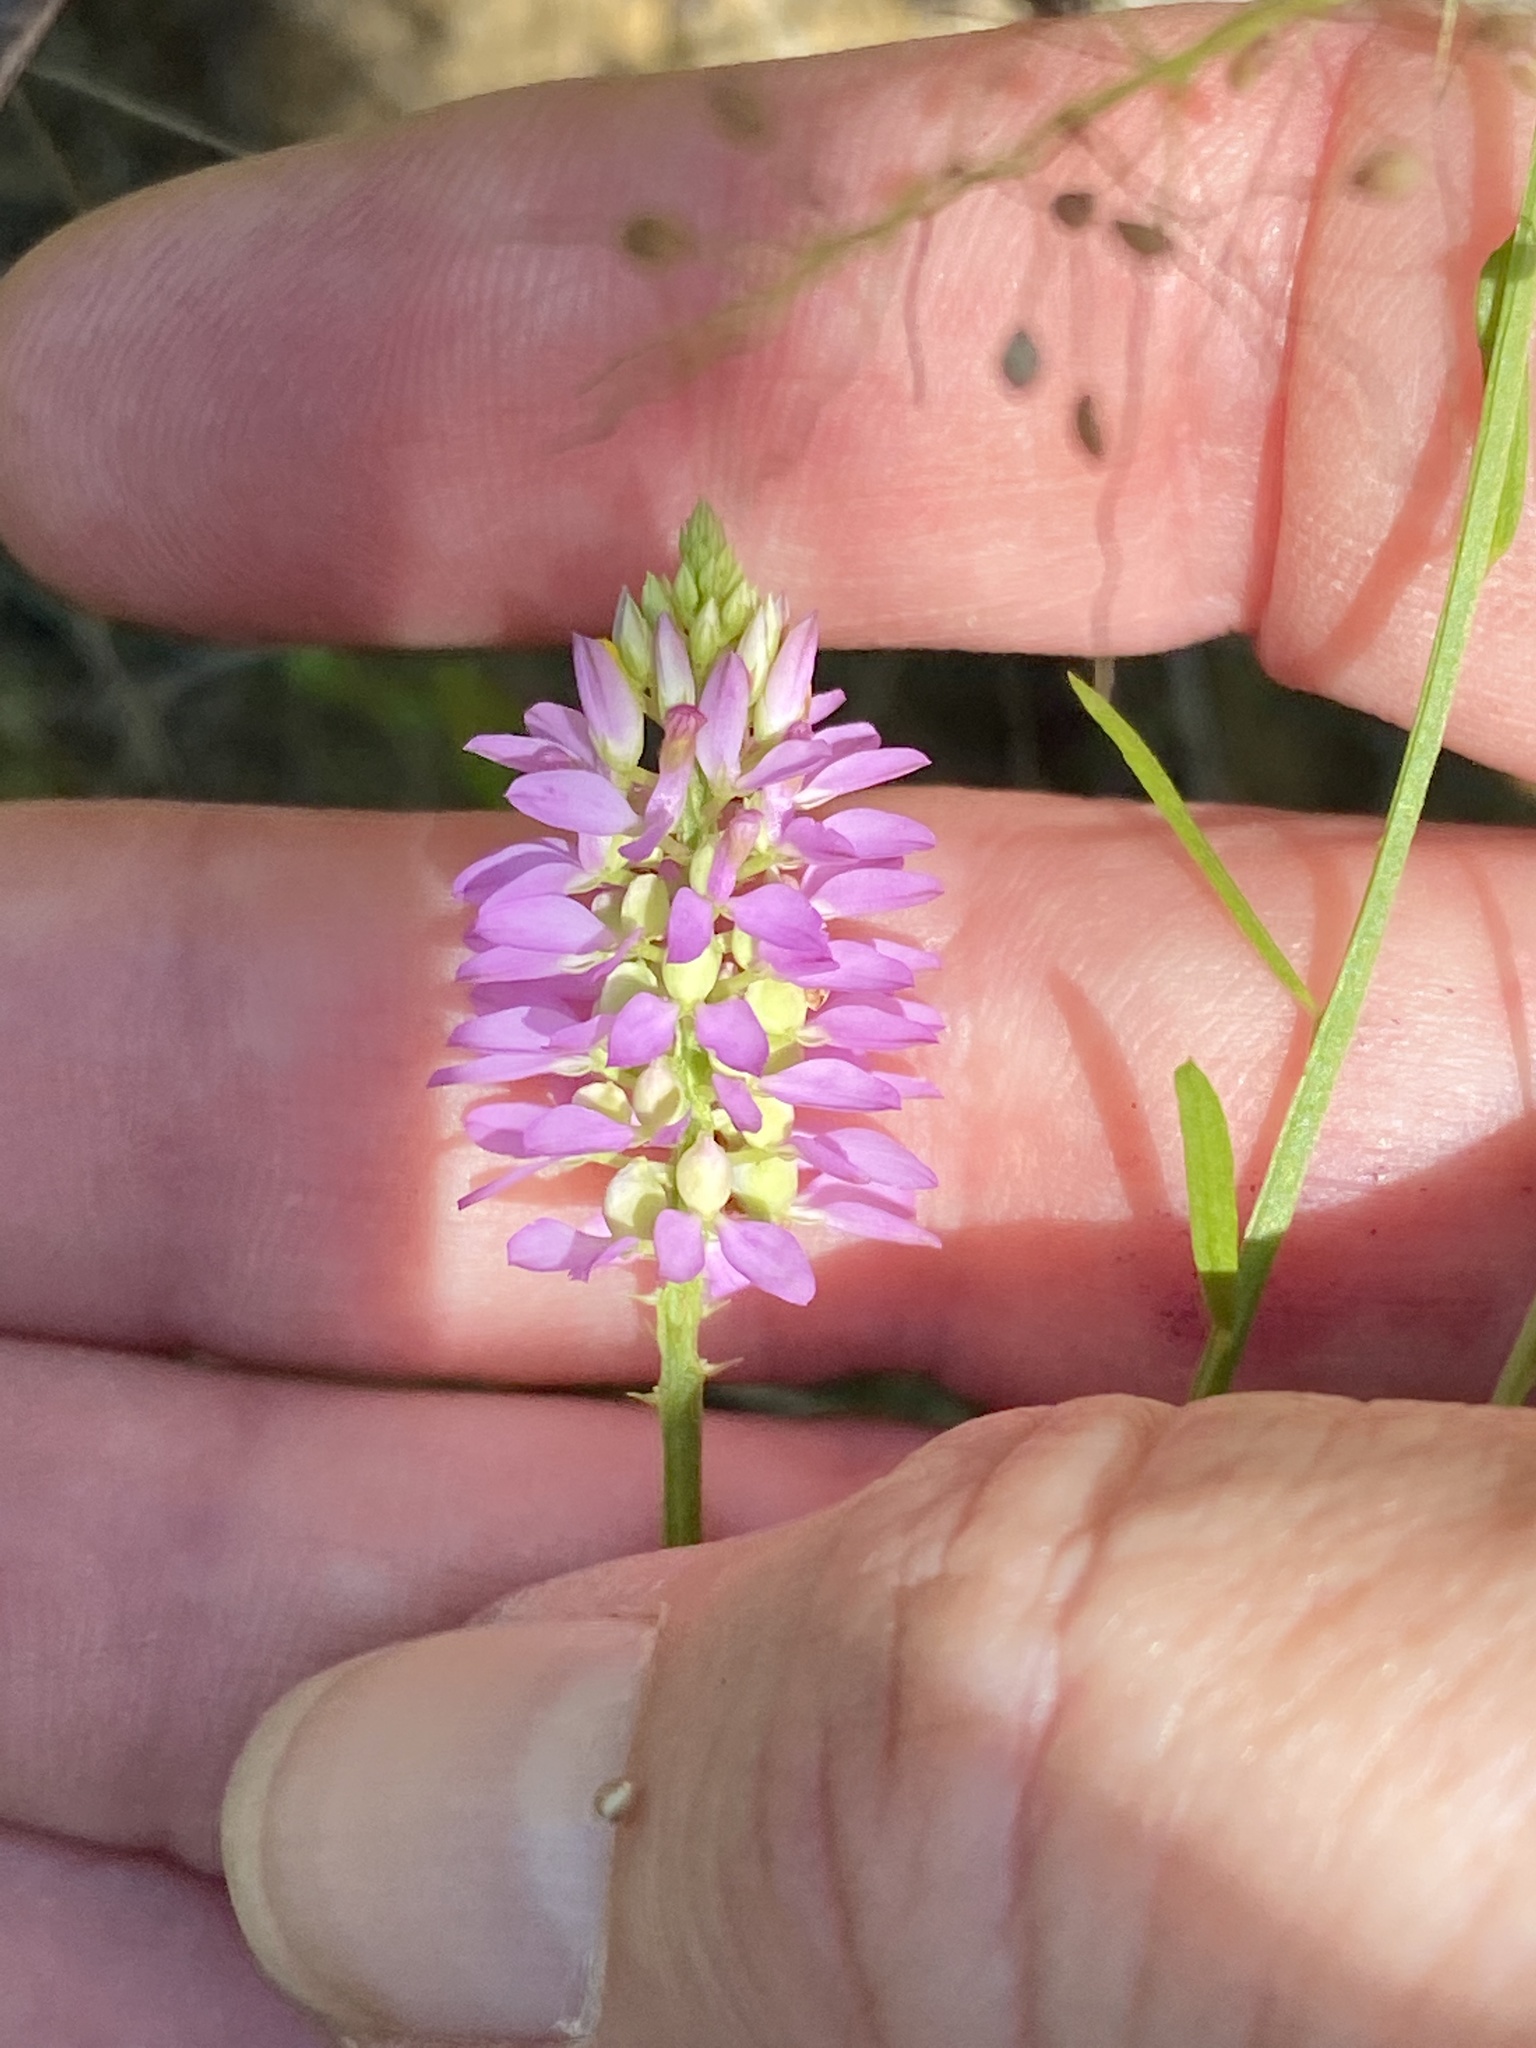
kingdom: Plantae
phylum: Tracheophyta
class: Magnoliopsida
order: Fabales
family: Polygalaceae
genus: Polygala
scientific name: Polygala curtissii
